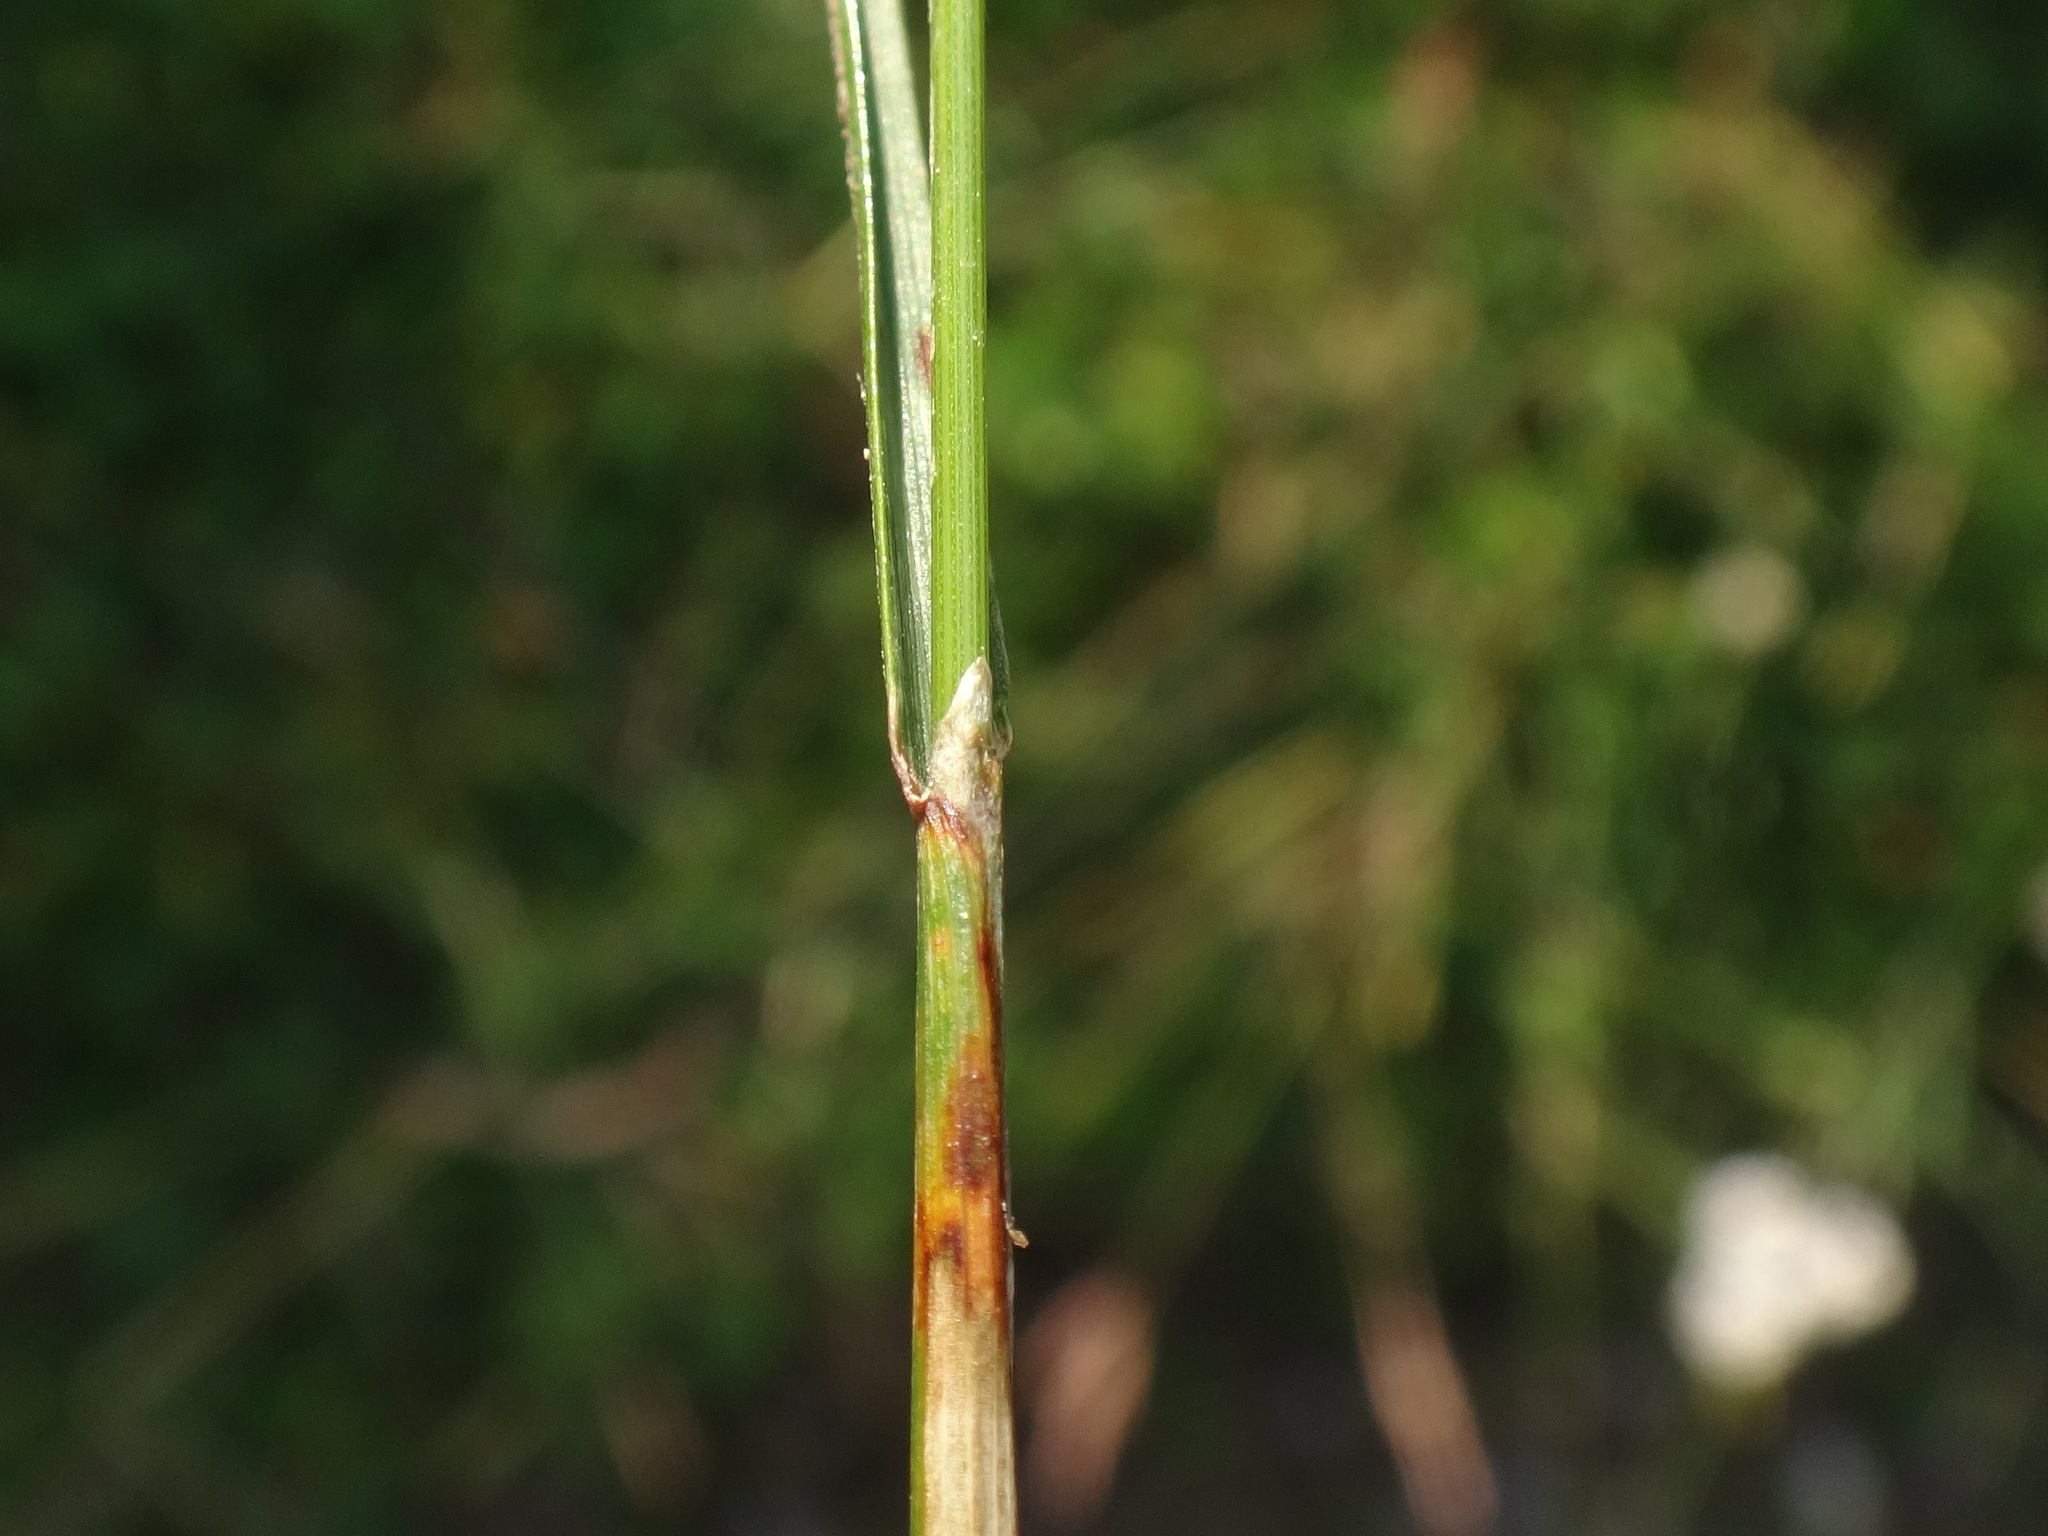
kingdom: Plantae
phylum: Tracheophyta
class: Liliopsida
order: Poales
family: Poaceae
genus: Cynosurus
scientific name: Cynosurus cristatus
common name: Crested dog's-tail
